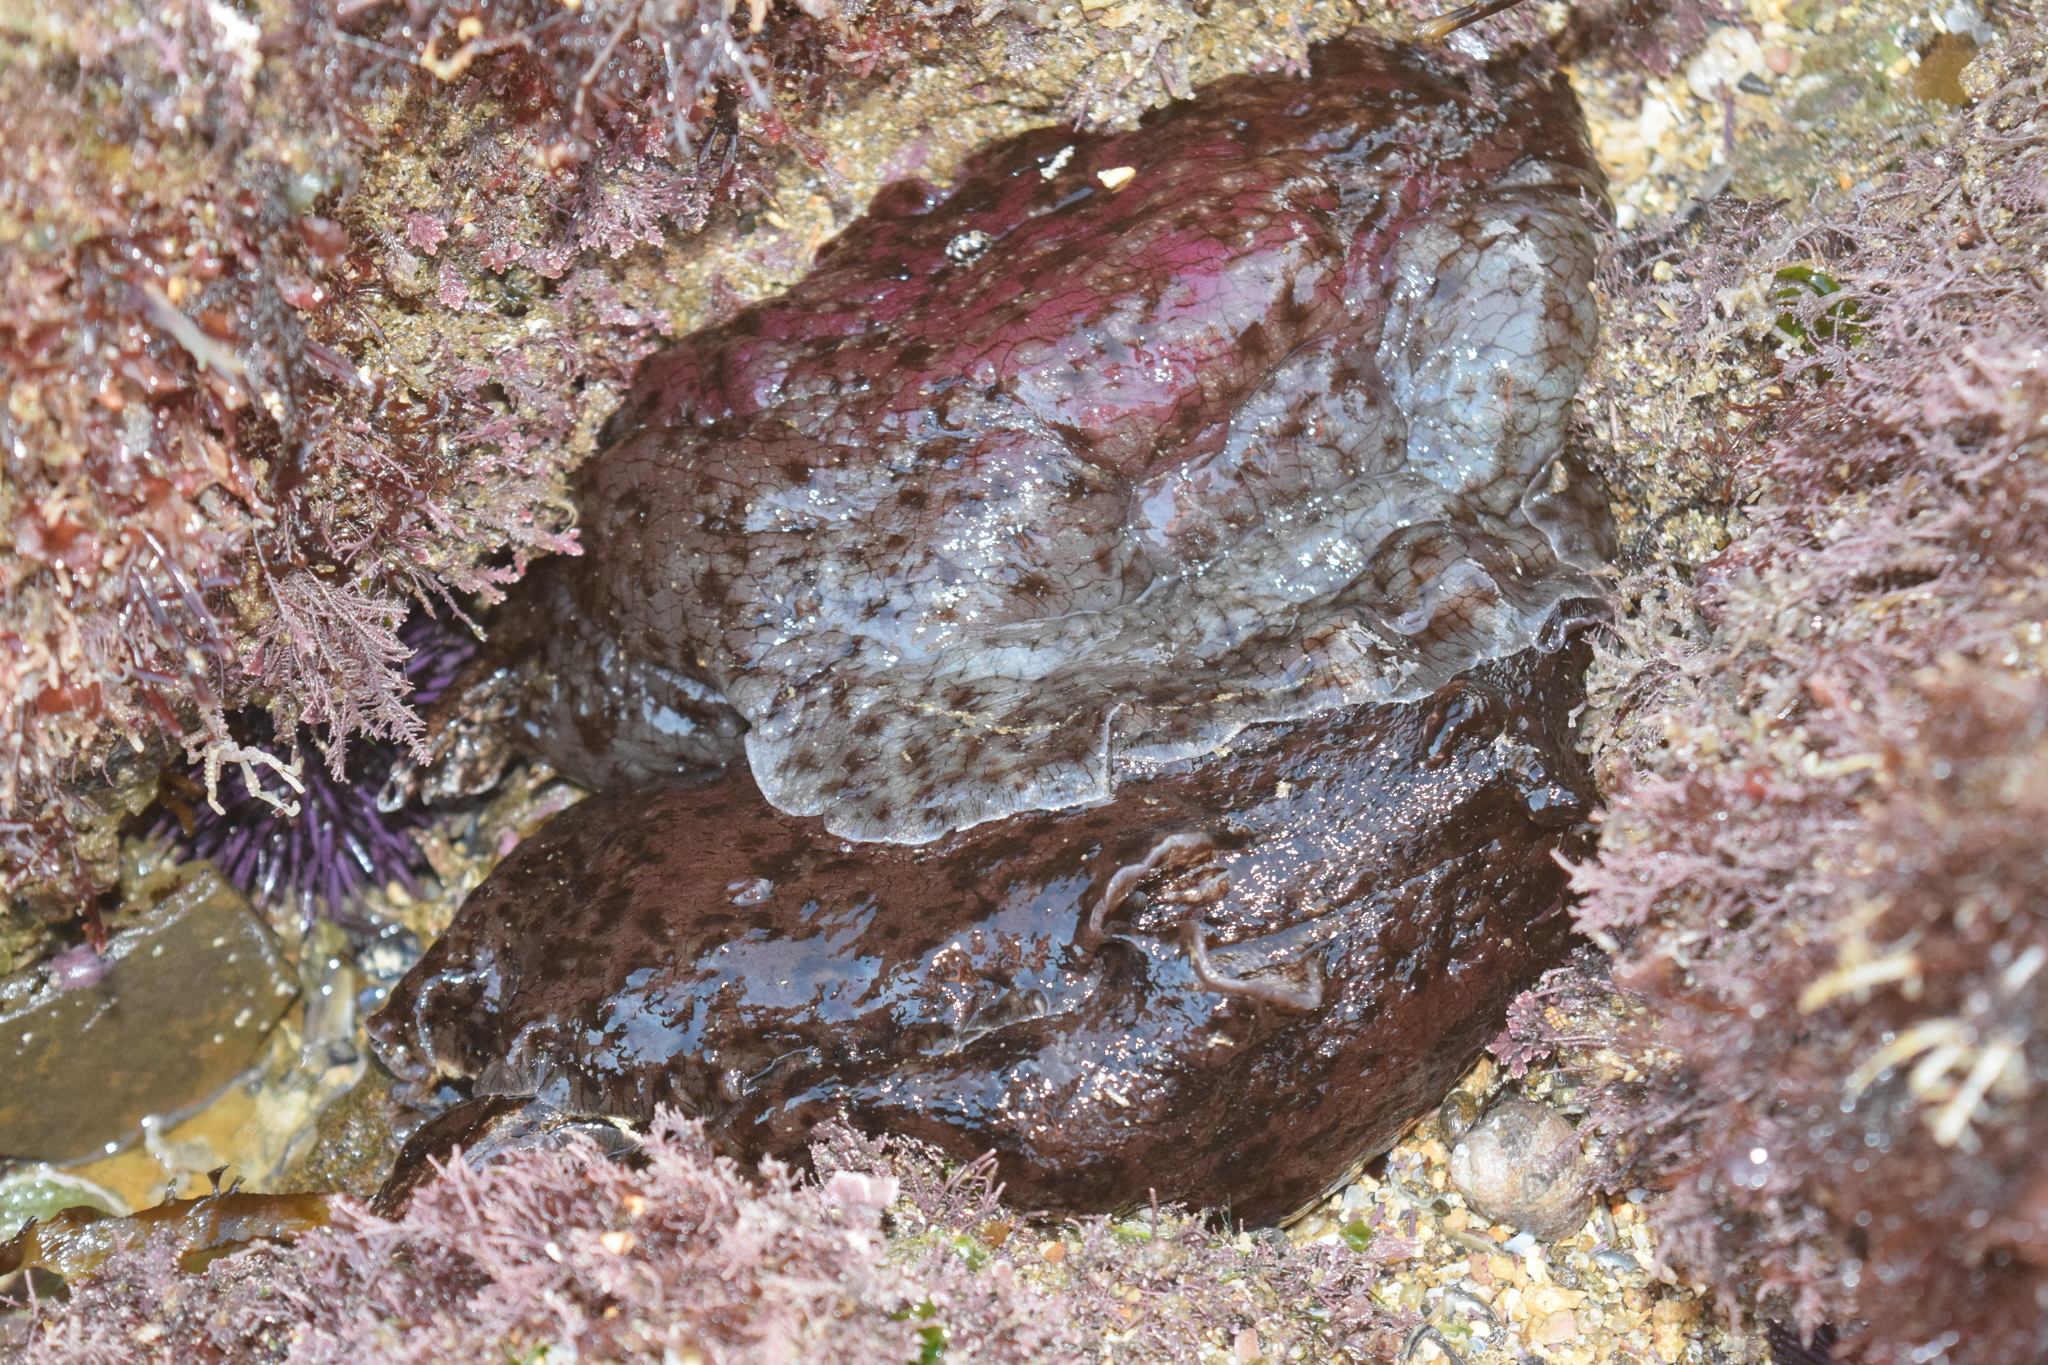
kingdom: Animalia
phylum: Mollusca
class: Gastropoda
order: Aplysiida
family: Aplysiidae
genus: Aplysia
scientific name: Aplysia californica
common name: California seahare
